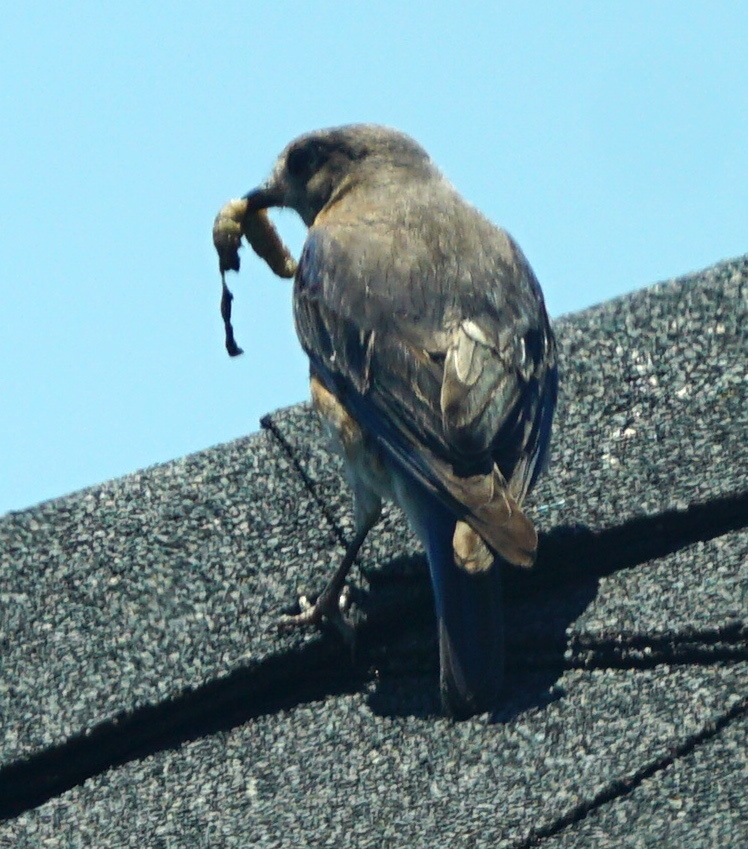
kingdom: Animalia
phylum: Chordata
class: Aves
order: Passeriformes
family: Turdidae
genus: Sialia
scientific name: Sialia sialis
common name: Eastern bluebird
